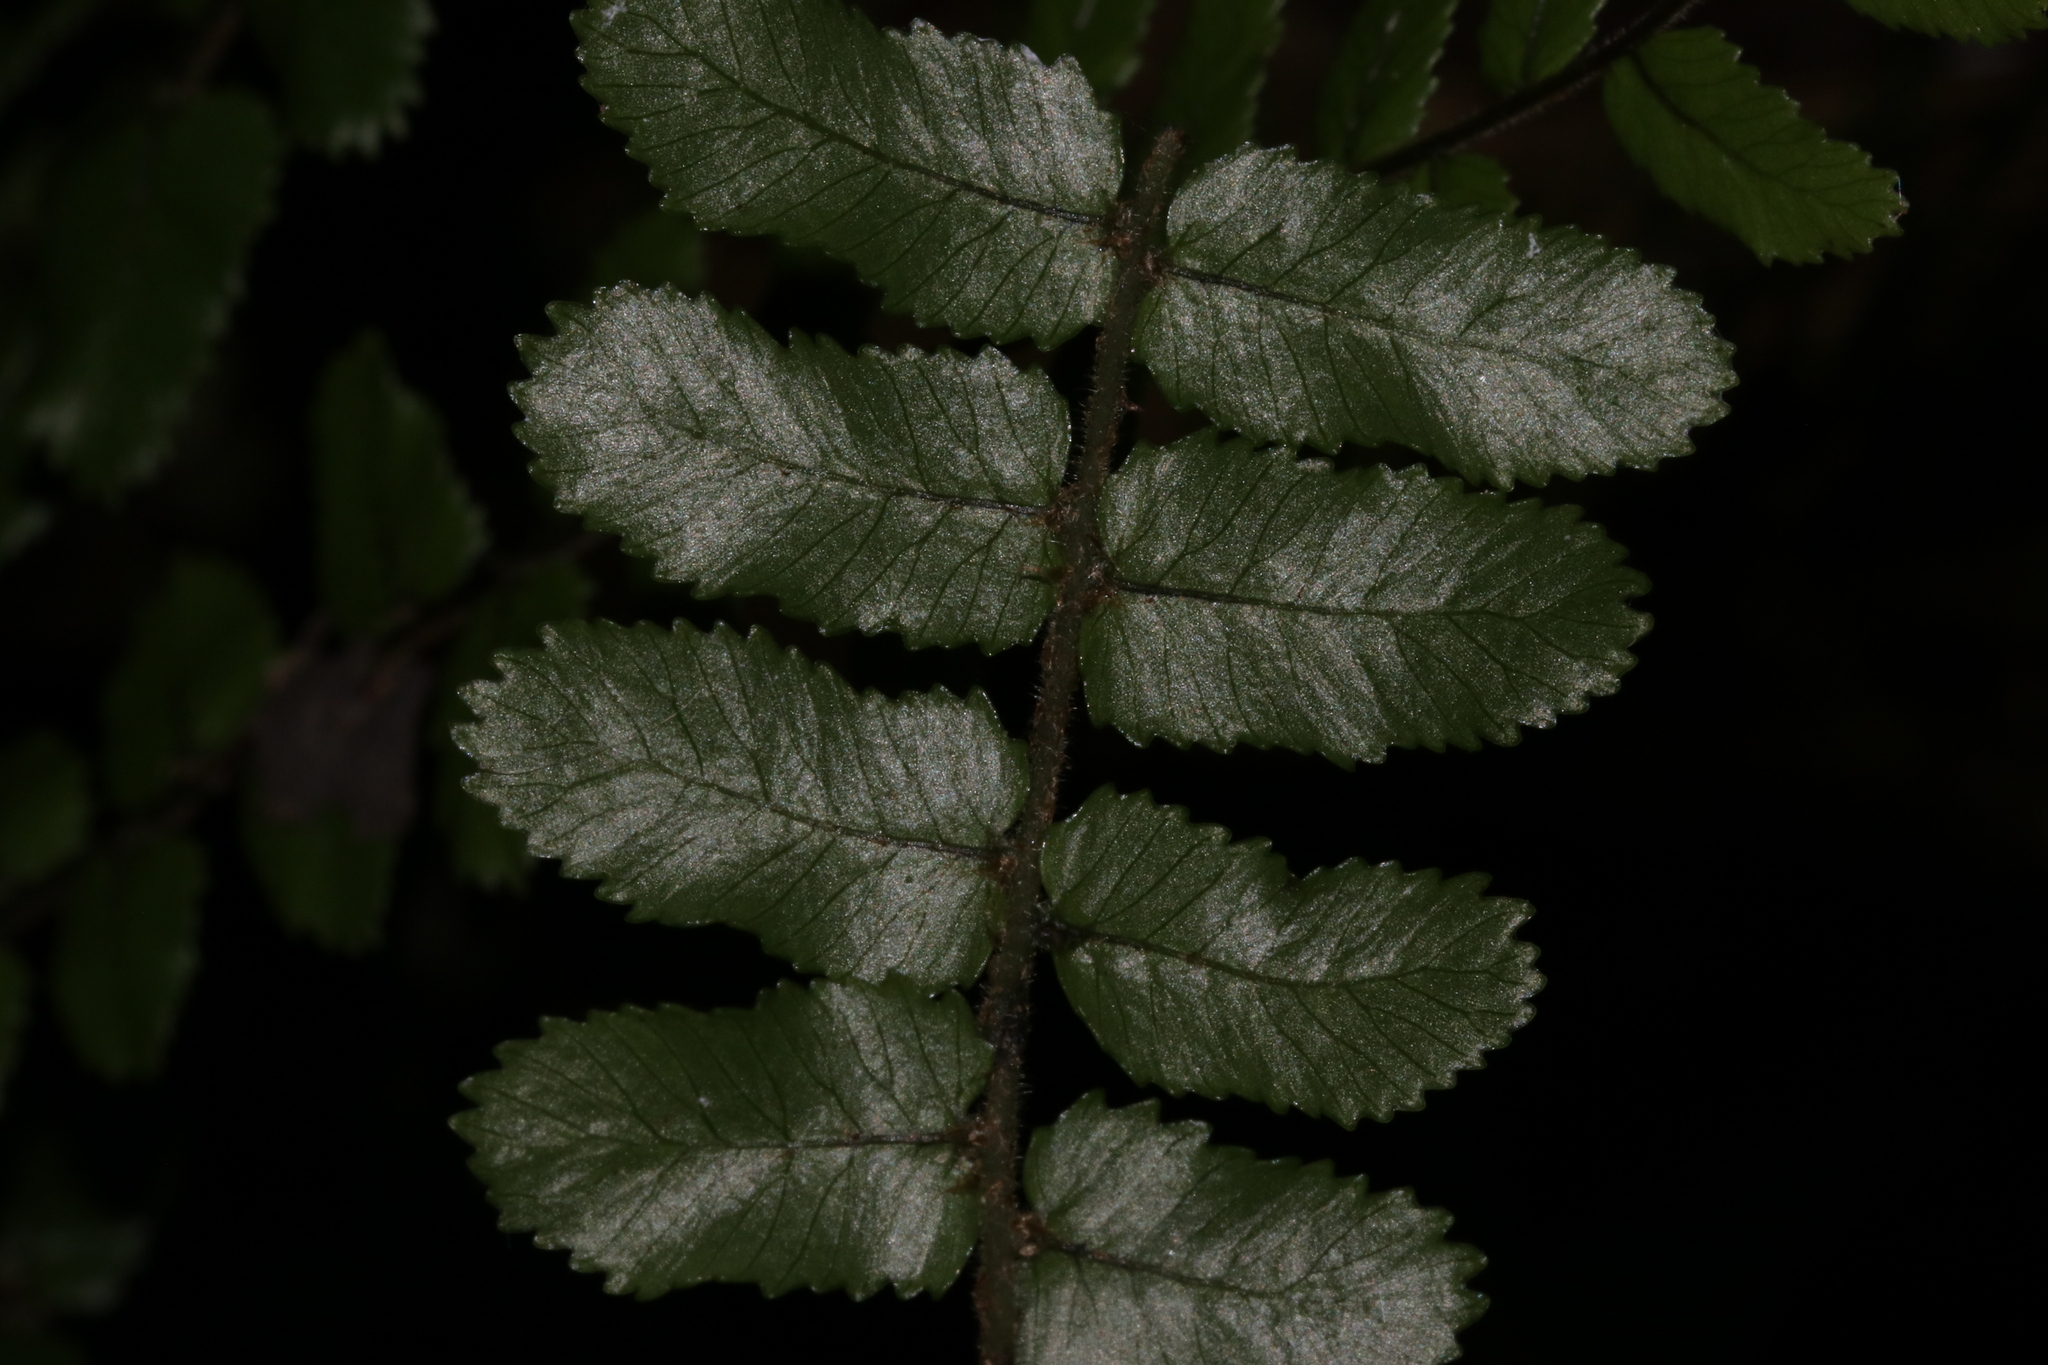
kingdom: Plantae
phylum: Tracheophyta
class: Polypodiopsida
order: Polypodiales
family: Blechnaceae
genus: Icarus
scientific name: Icarus filiformis
